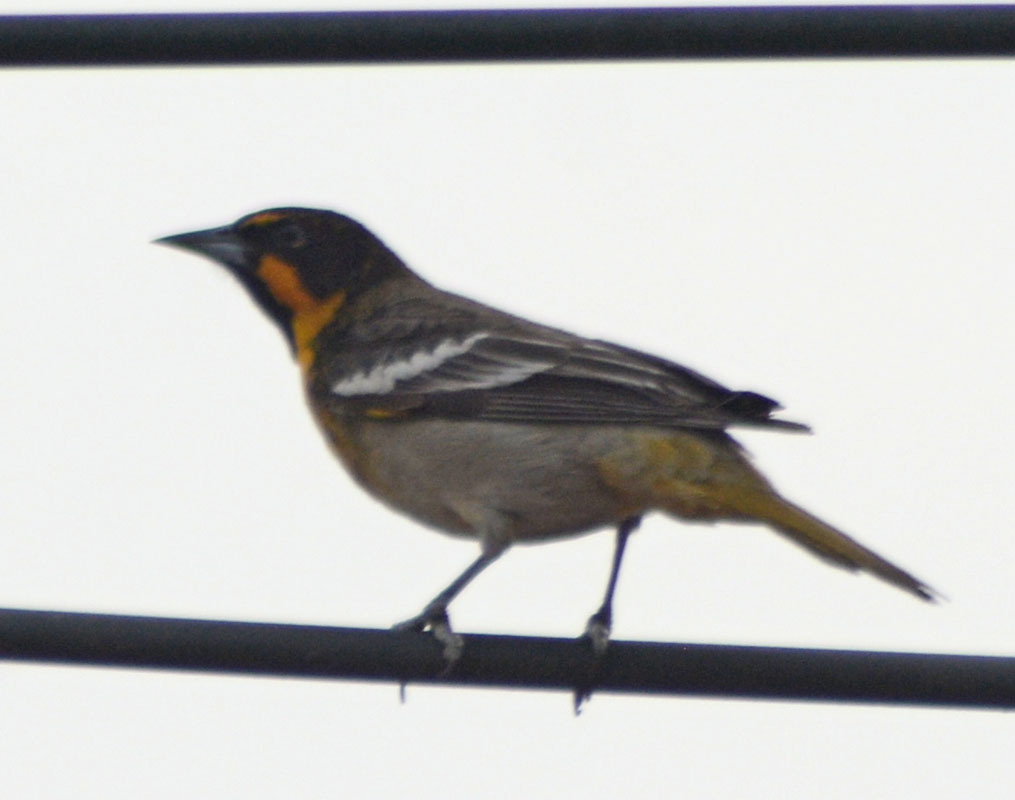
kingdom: Animalia
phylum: Chordata
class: Aves
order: Passeriformes
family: Icteridae
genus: Icterus
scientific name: Icterus abeillei
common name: Black-backed oriole
